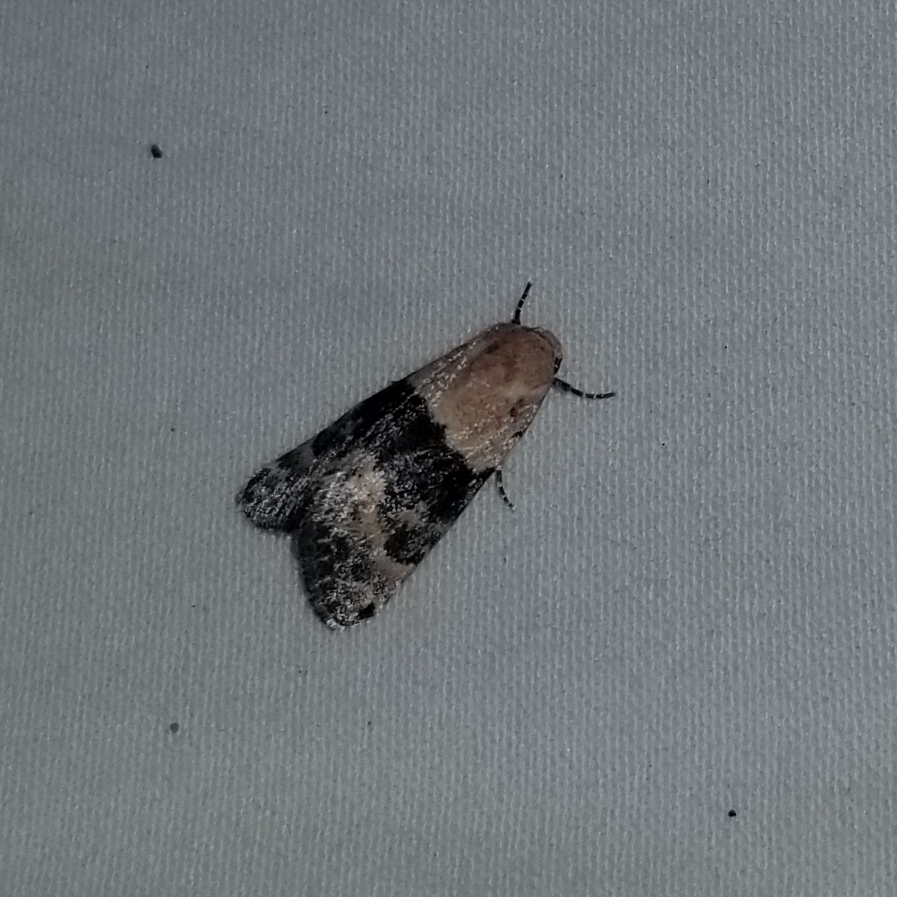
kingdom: Animalia
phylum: Arthropoda
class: Insecta
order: Lepidoptera
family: Noctuidae
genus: Aleptina
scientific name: Aleptina semiatra
